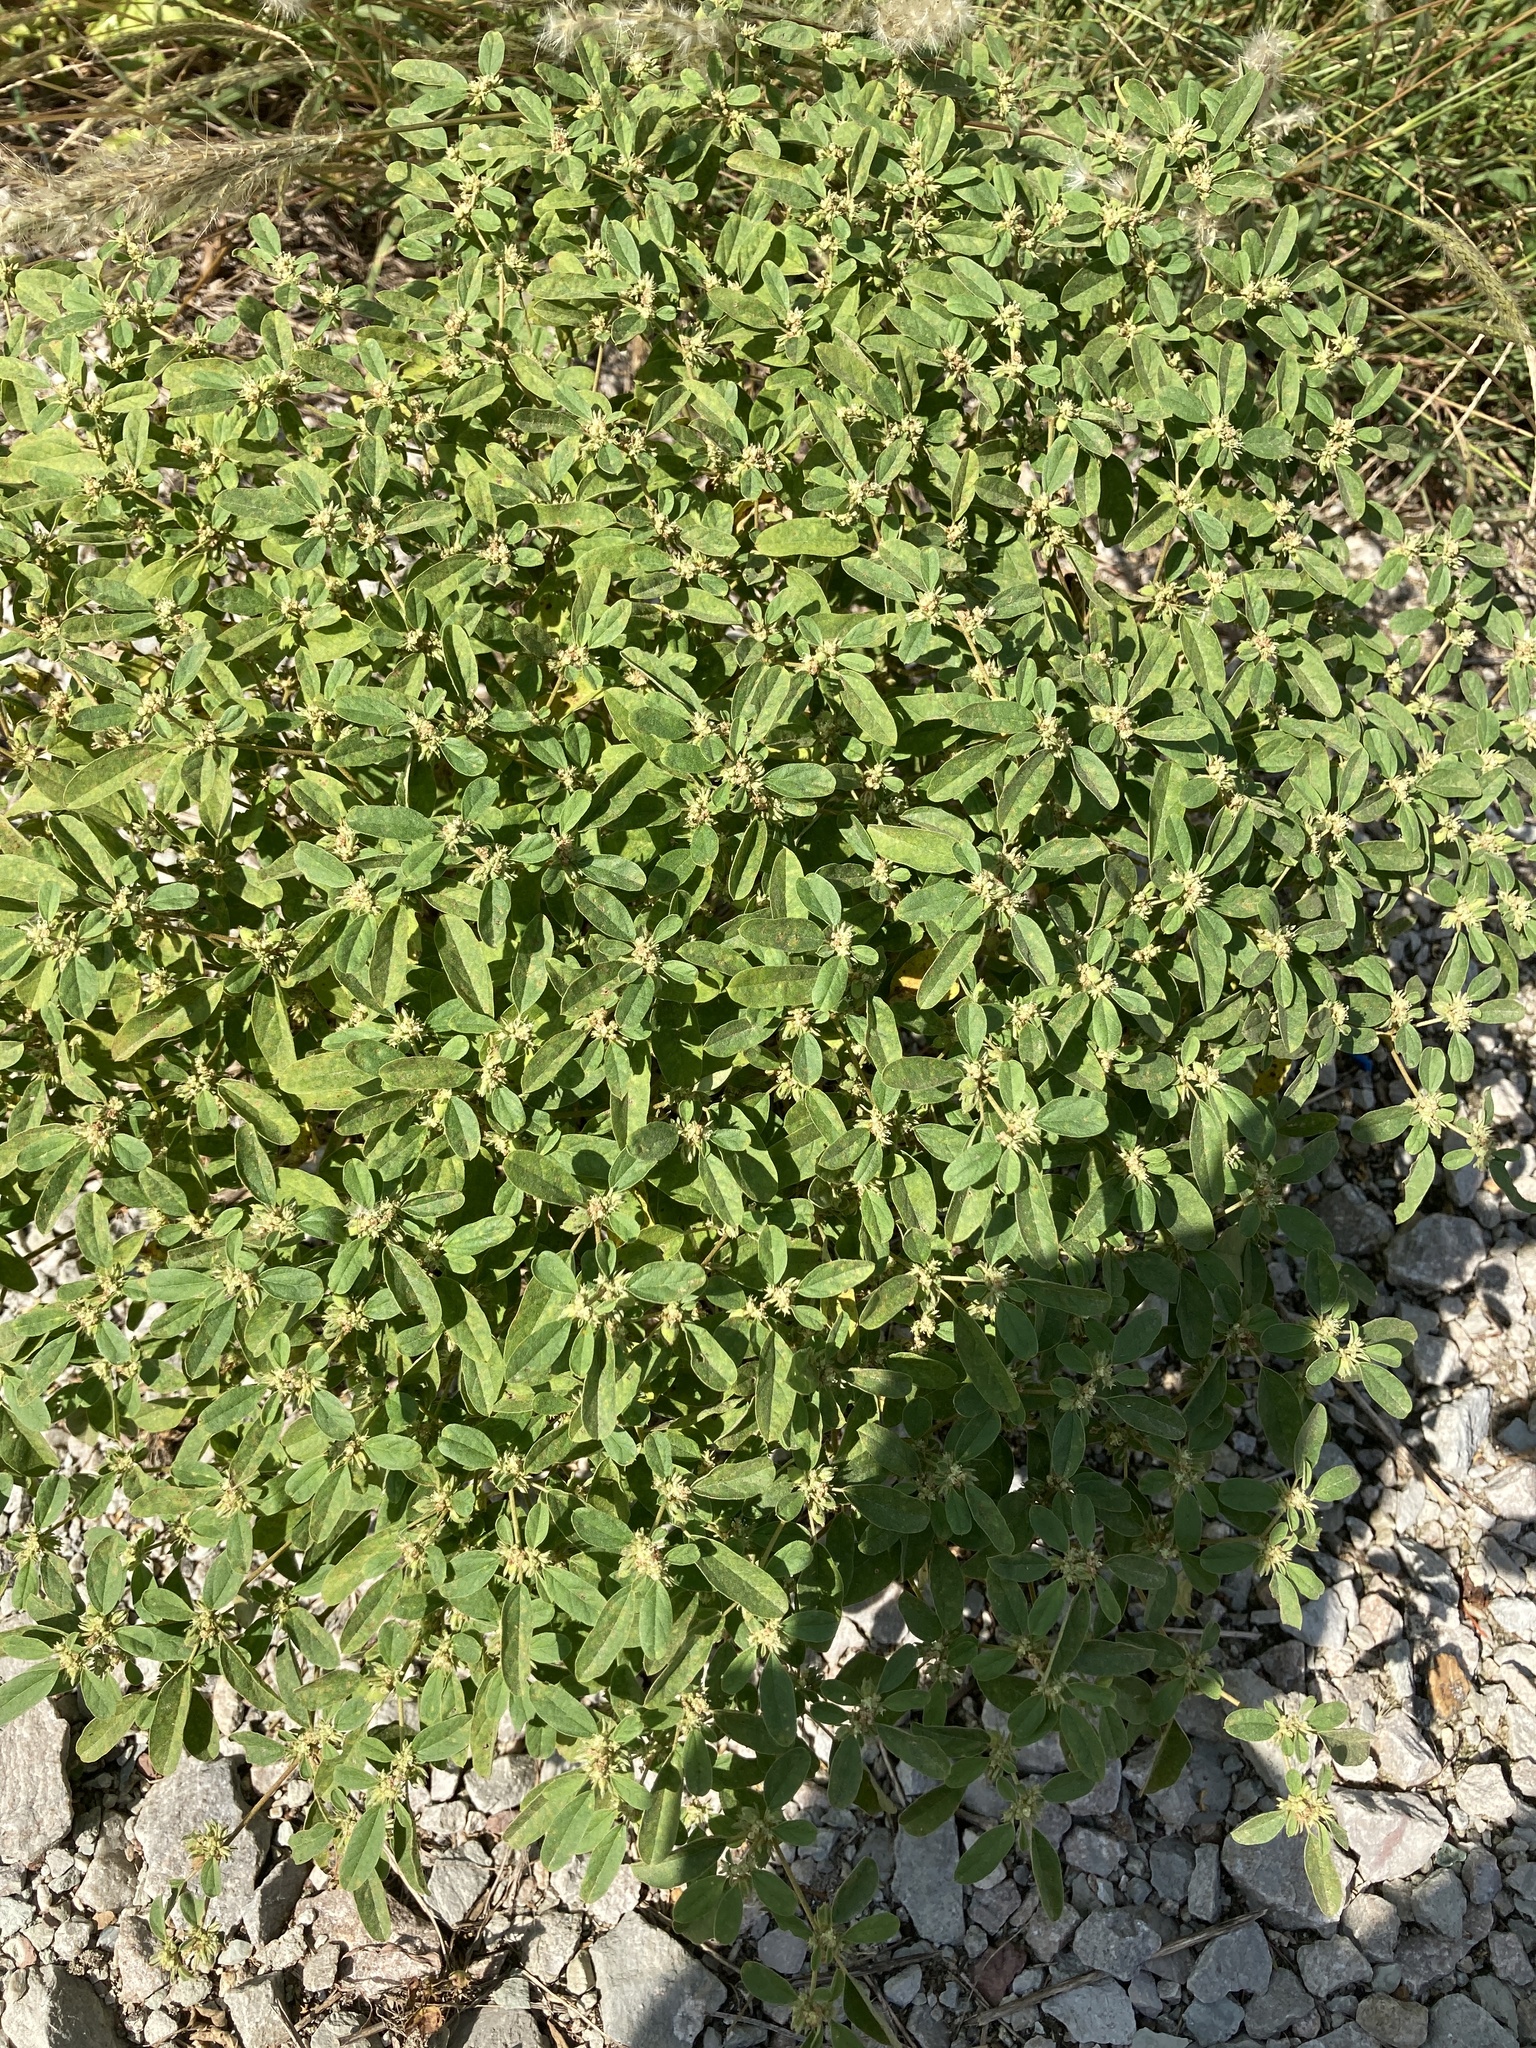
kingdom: Plantae
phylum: Tracheophyta
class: Magnoliopsida
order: Malpighiales
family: Euphorbiaceae
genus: Croton
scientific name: Croton monanthogynus
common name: One-seed croton
